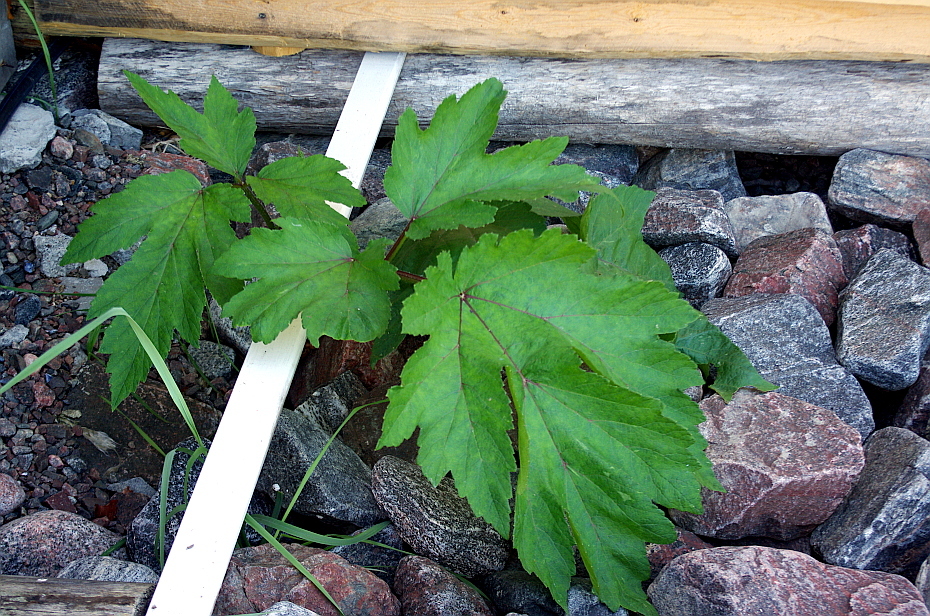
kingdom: Plantae
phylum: Tracheophyta
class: Magnoliopsida
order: Apiales
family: Apiaceae
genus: Heracleum
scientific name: Heracleum sphondylium
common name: Hogweed
